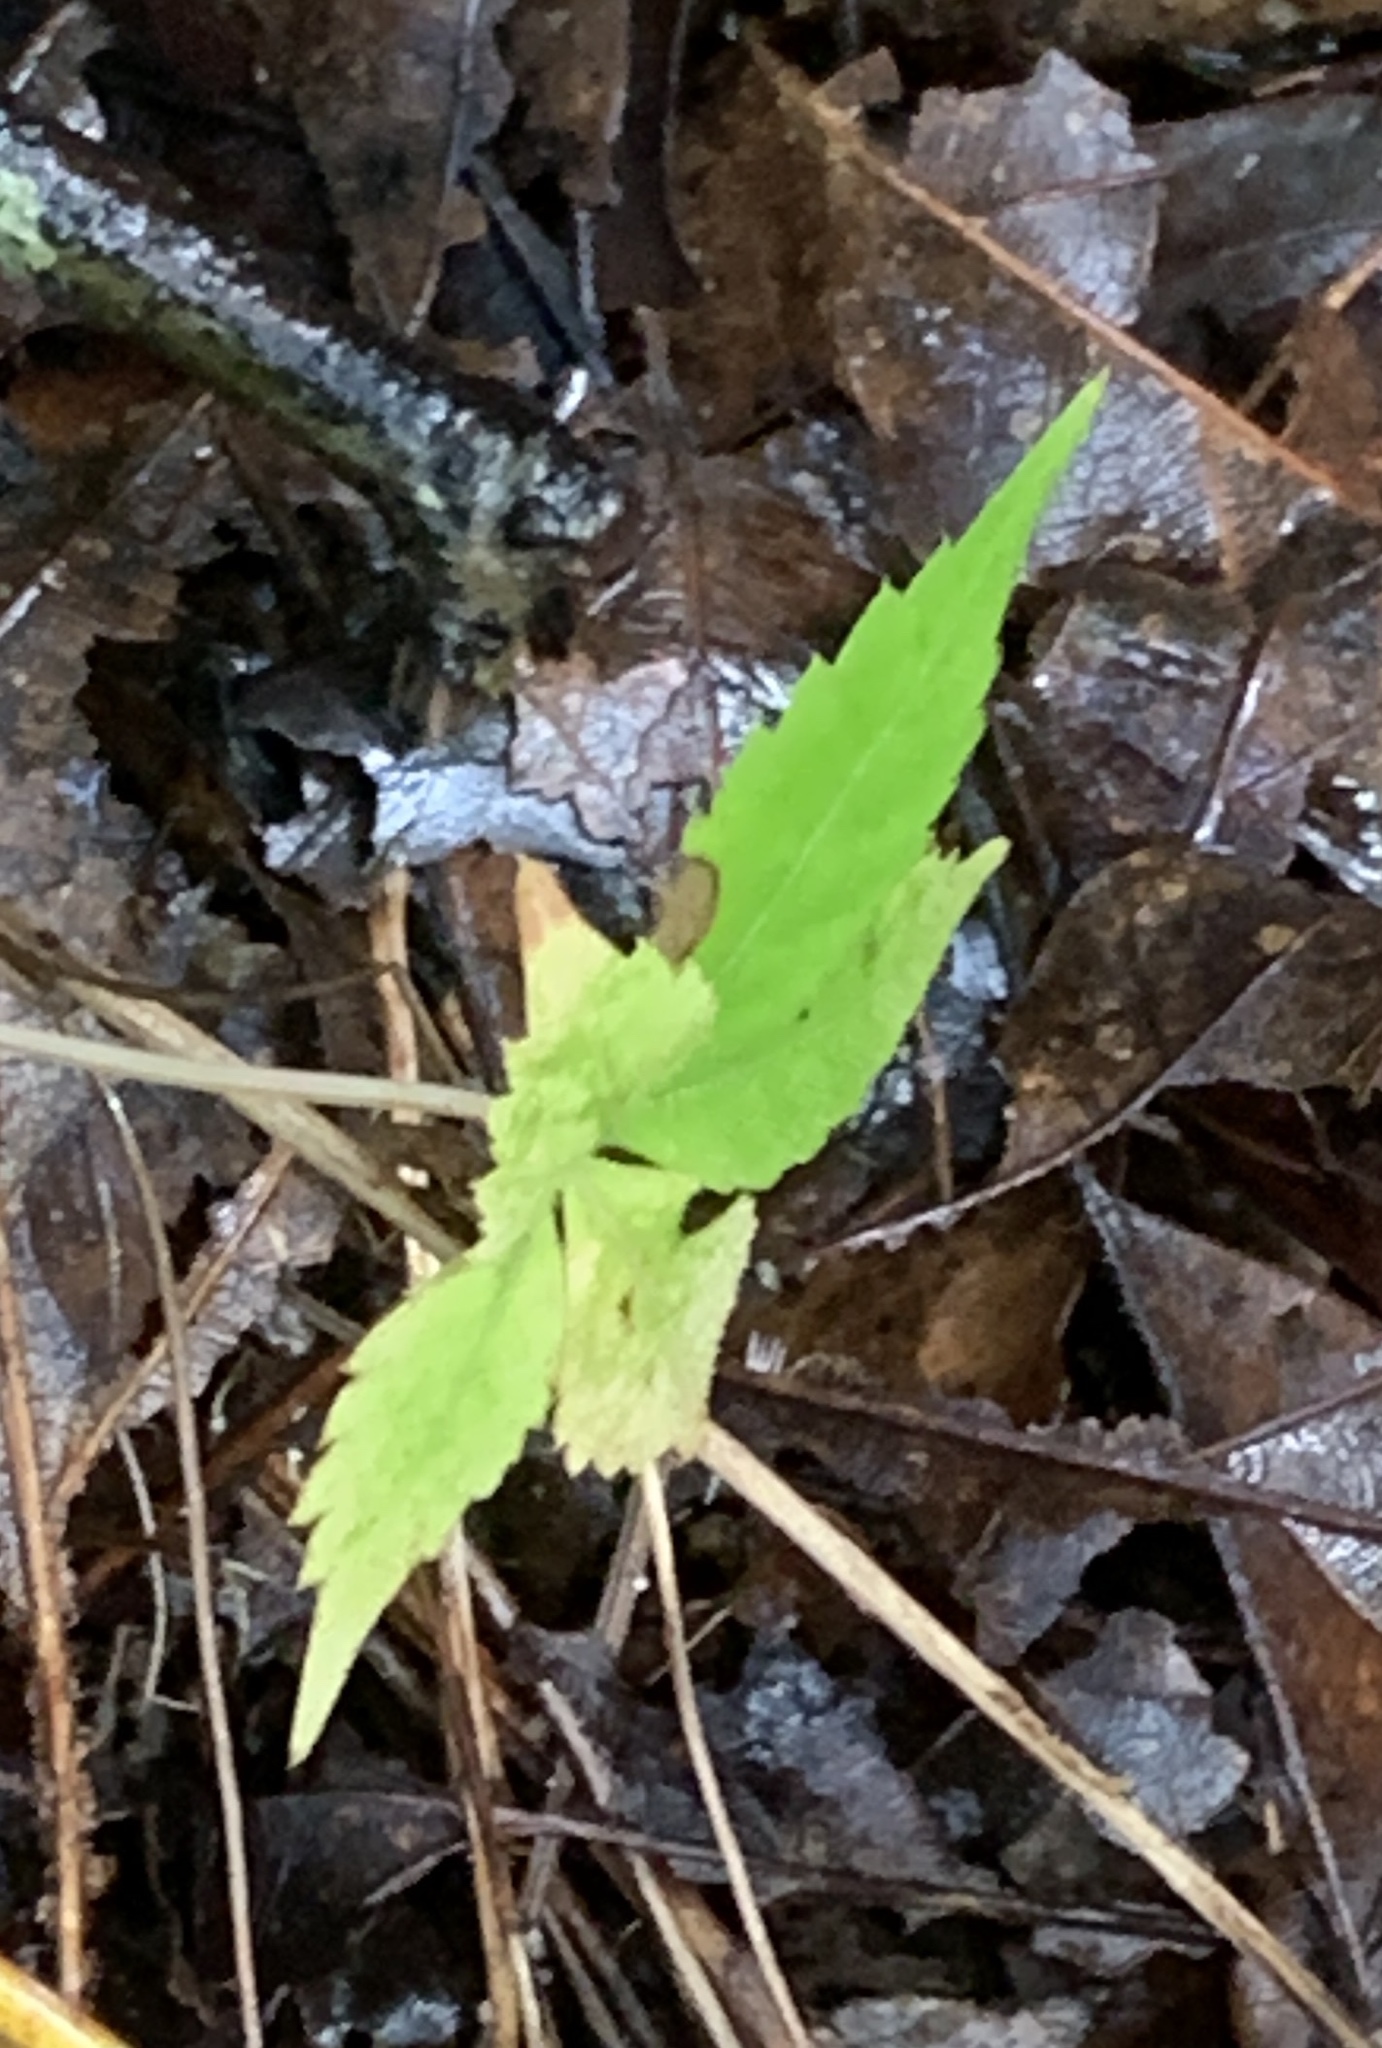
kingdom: Plantae
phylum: Tracheophyta
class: Magnoliopsida
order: Vitales
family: Vitaceae
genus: Parthenocissus
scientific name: Parthenocissus quinquefolia
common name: Virginia-creeper
